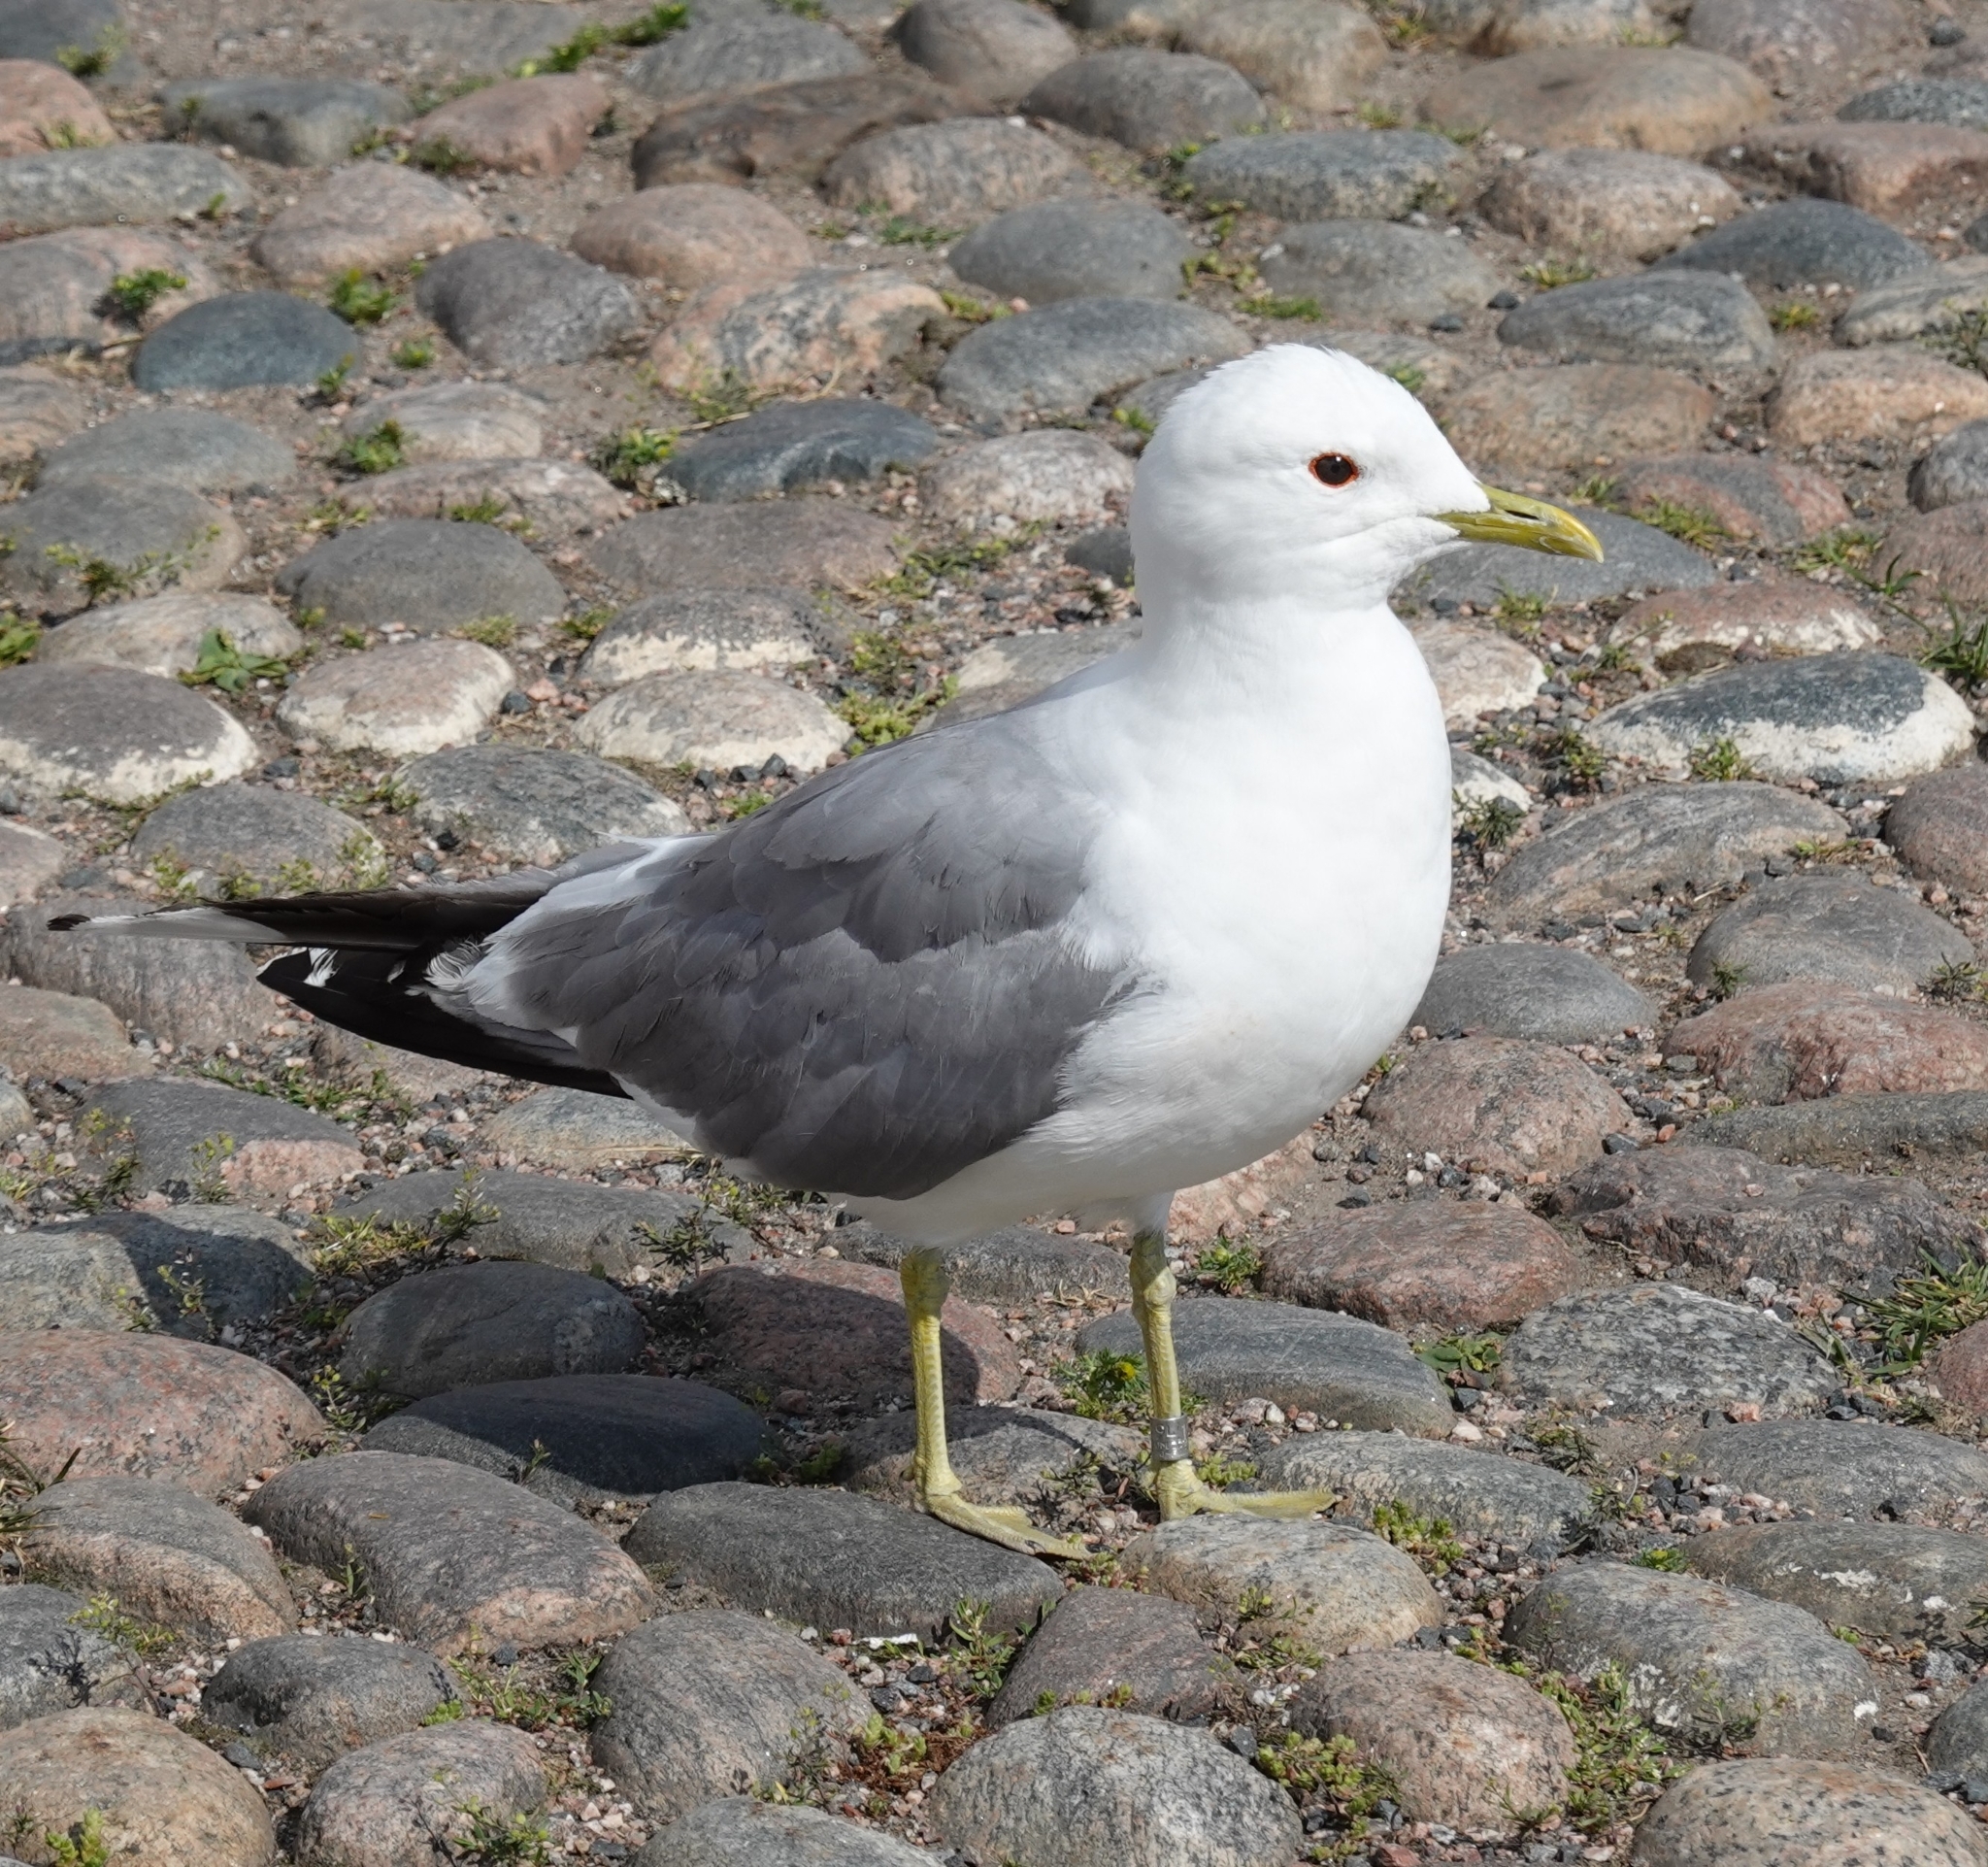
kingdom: Animalia
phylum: Chordata
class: Aves
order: Charadriiformes
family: Laridae
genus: Larus
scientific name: Larus canus
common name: Mew gull
